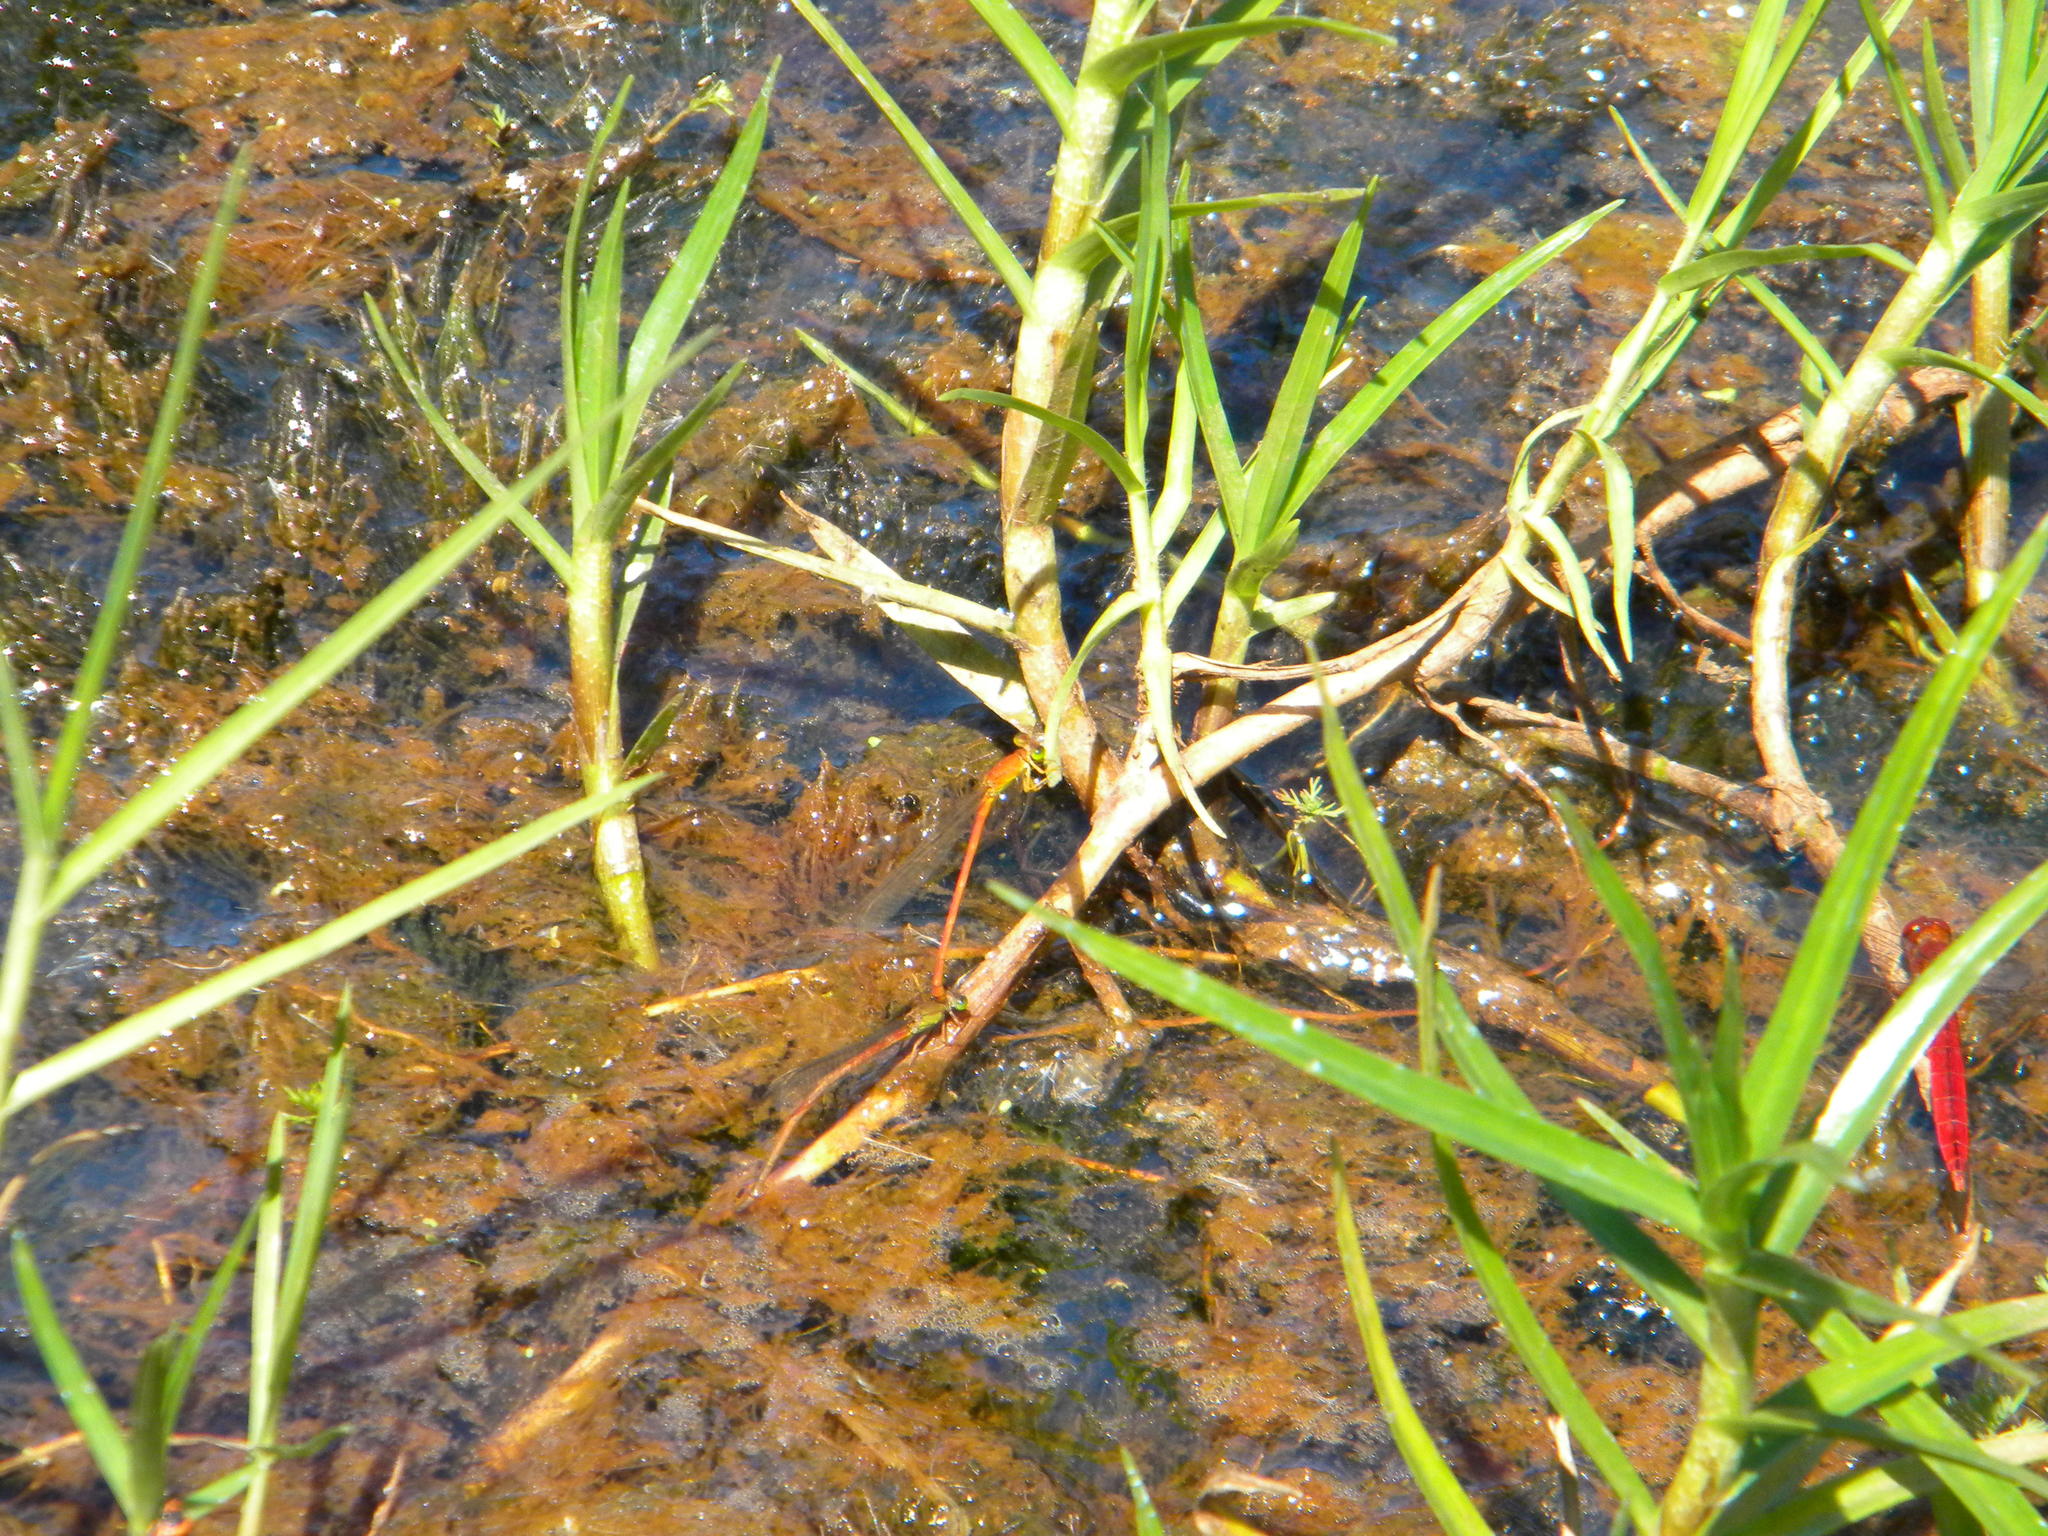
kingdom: Animalia
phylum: Arthropoda
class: Insecta
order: Odonata
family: Coenagrionidae
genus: Ceriagrion
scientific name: Ceriagrion glabrum
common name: Common pond damsel
